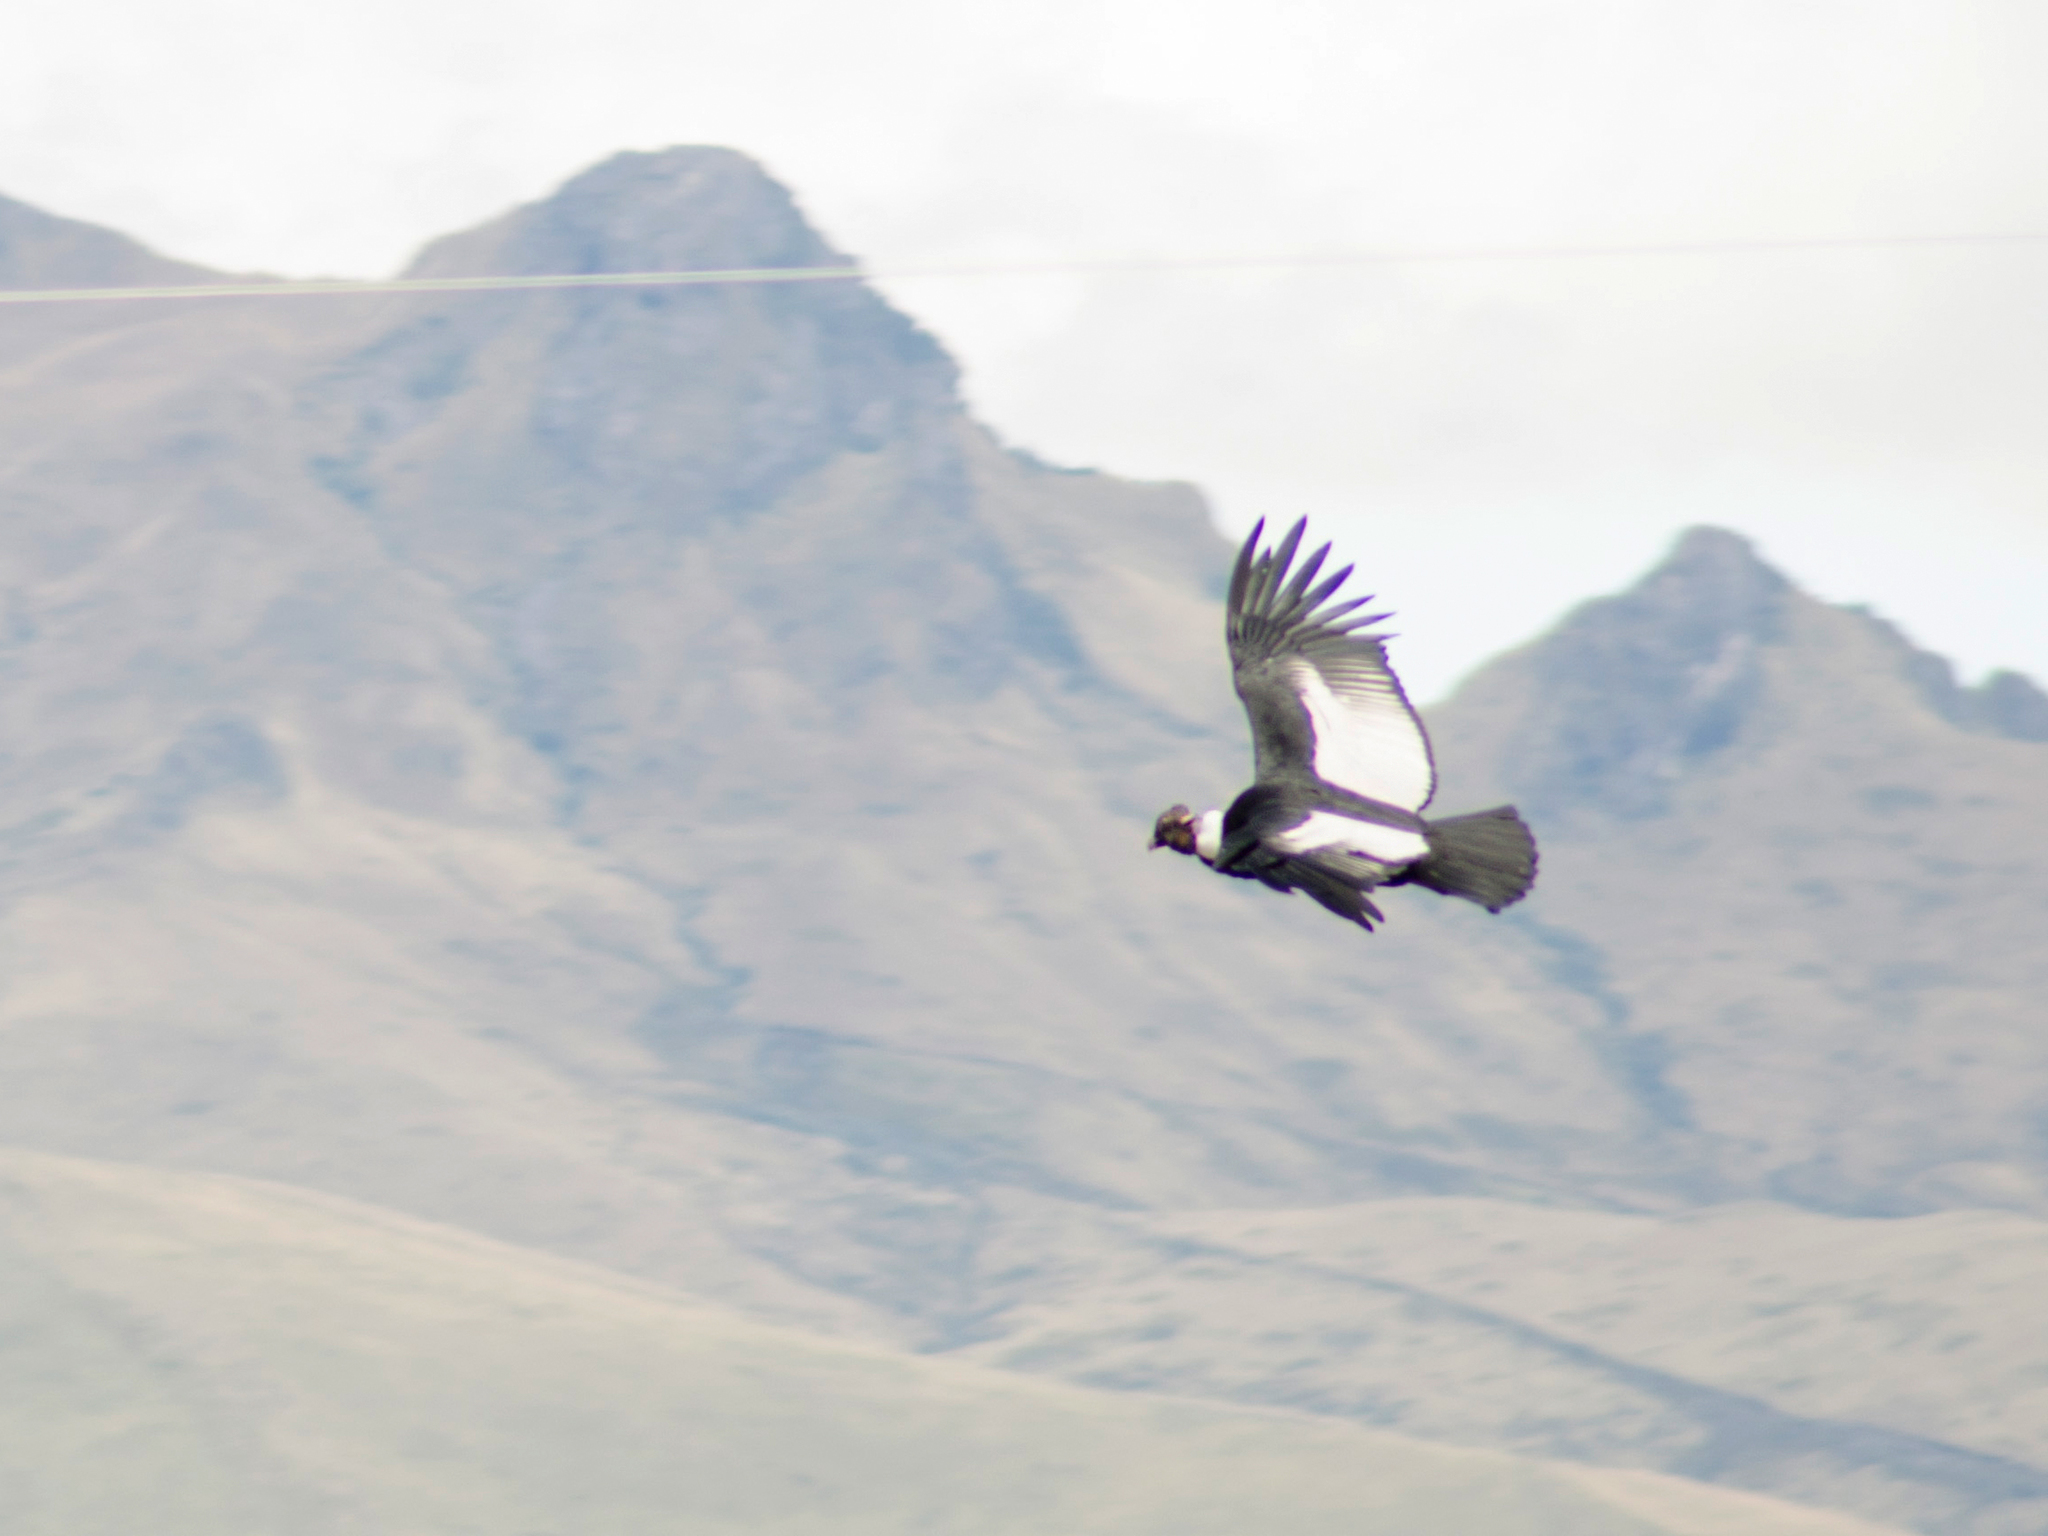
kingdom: Animalia
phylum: Chordata
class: Aves
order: Accipitriformes
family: Cathartidae
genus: Vultur
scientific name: Vultur gryphus
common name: Andean condor
